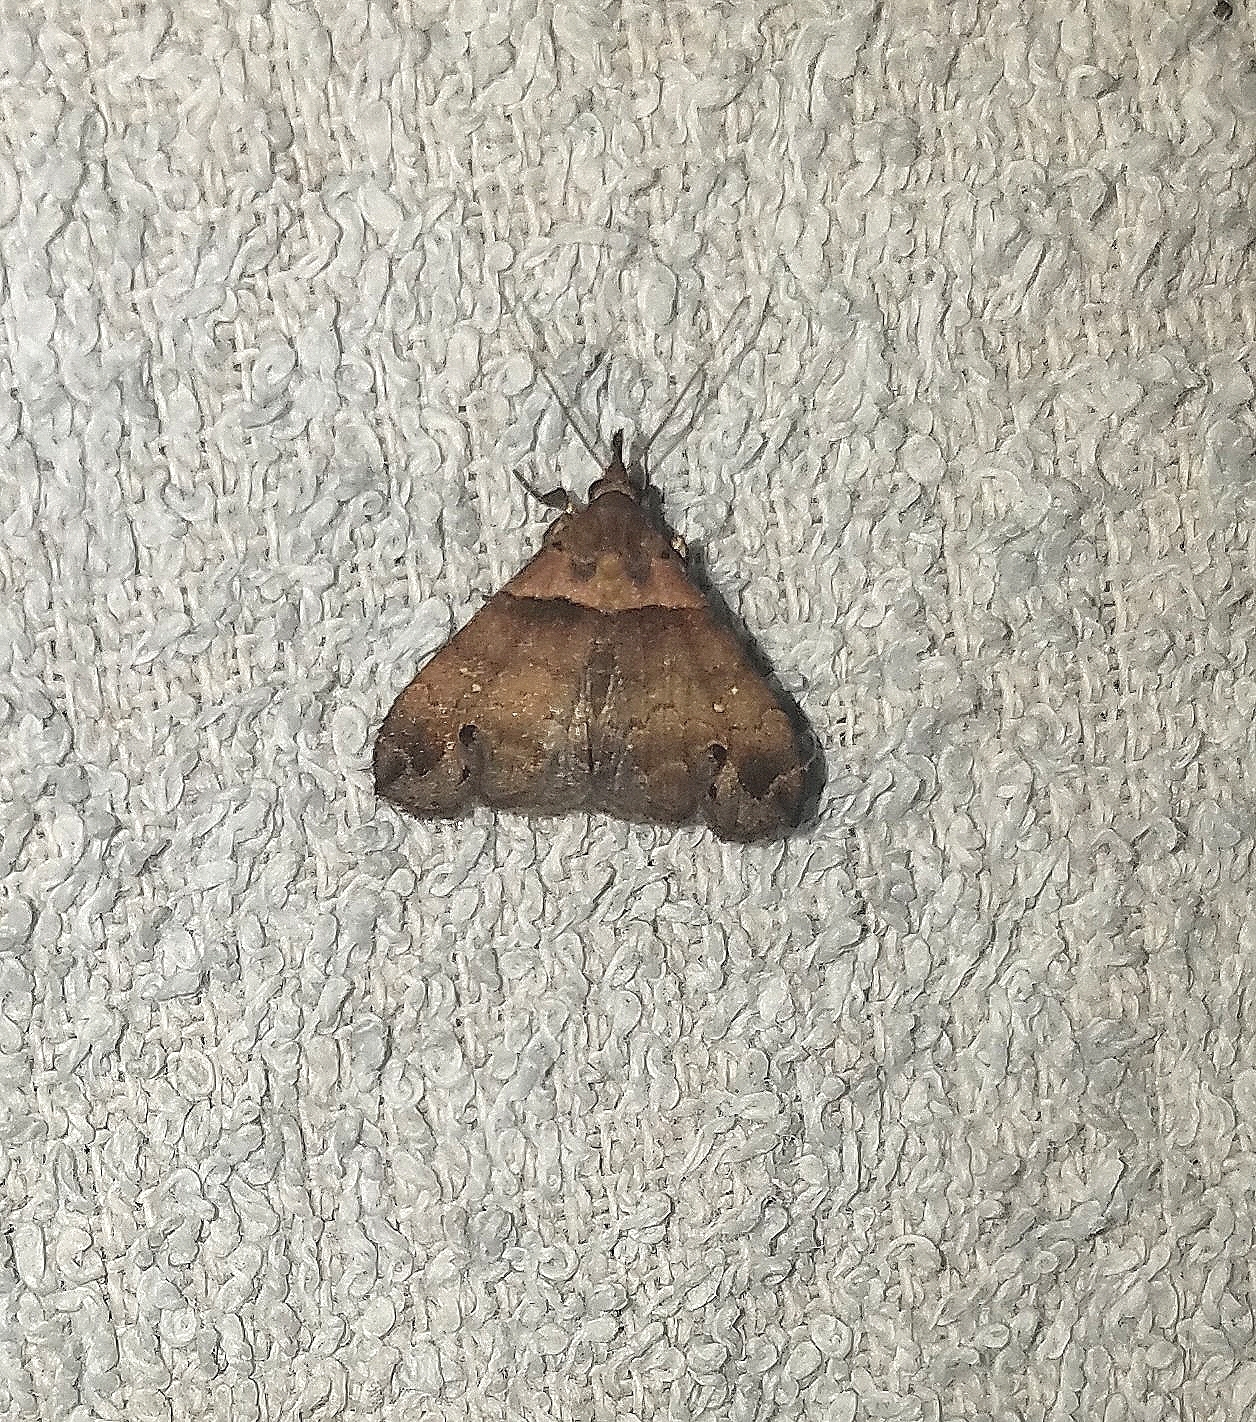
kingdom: Animalia
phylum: Arthropoda
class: Insecta
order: Lepidoptera
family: Erebidae
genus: Lascoria
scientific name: Lascoria ambigualis
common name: Ambiguous moth
